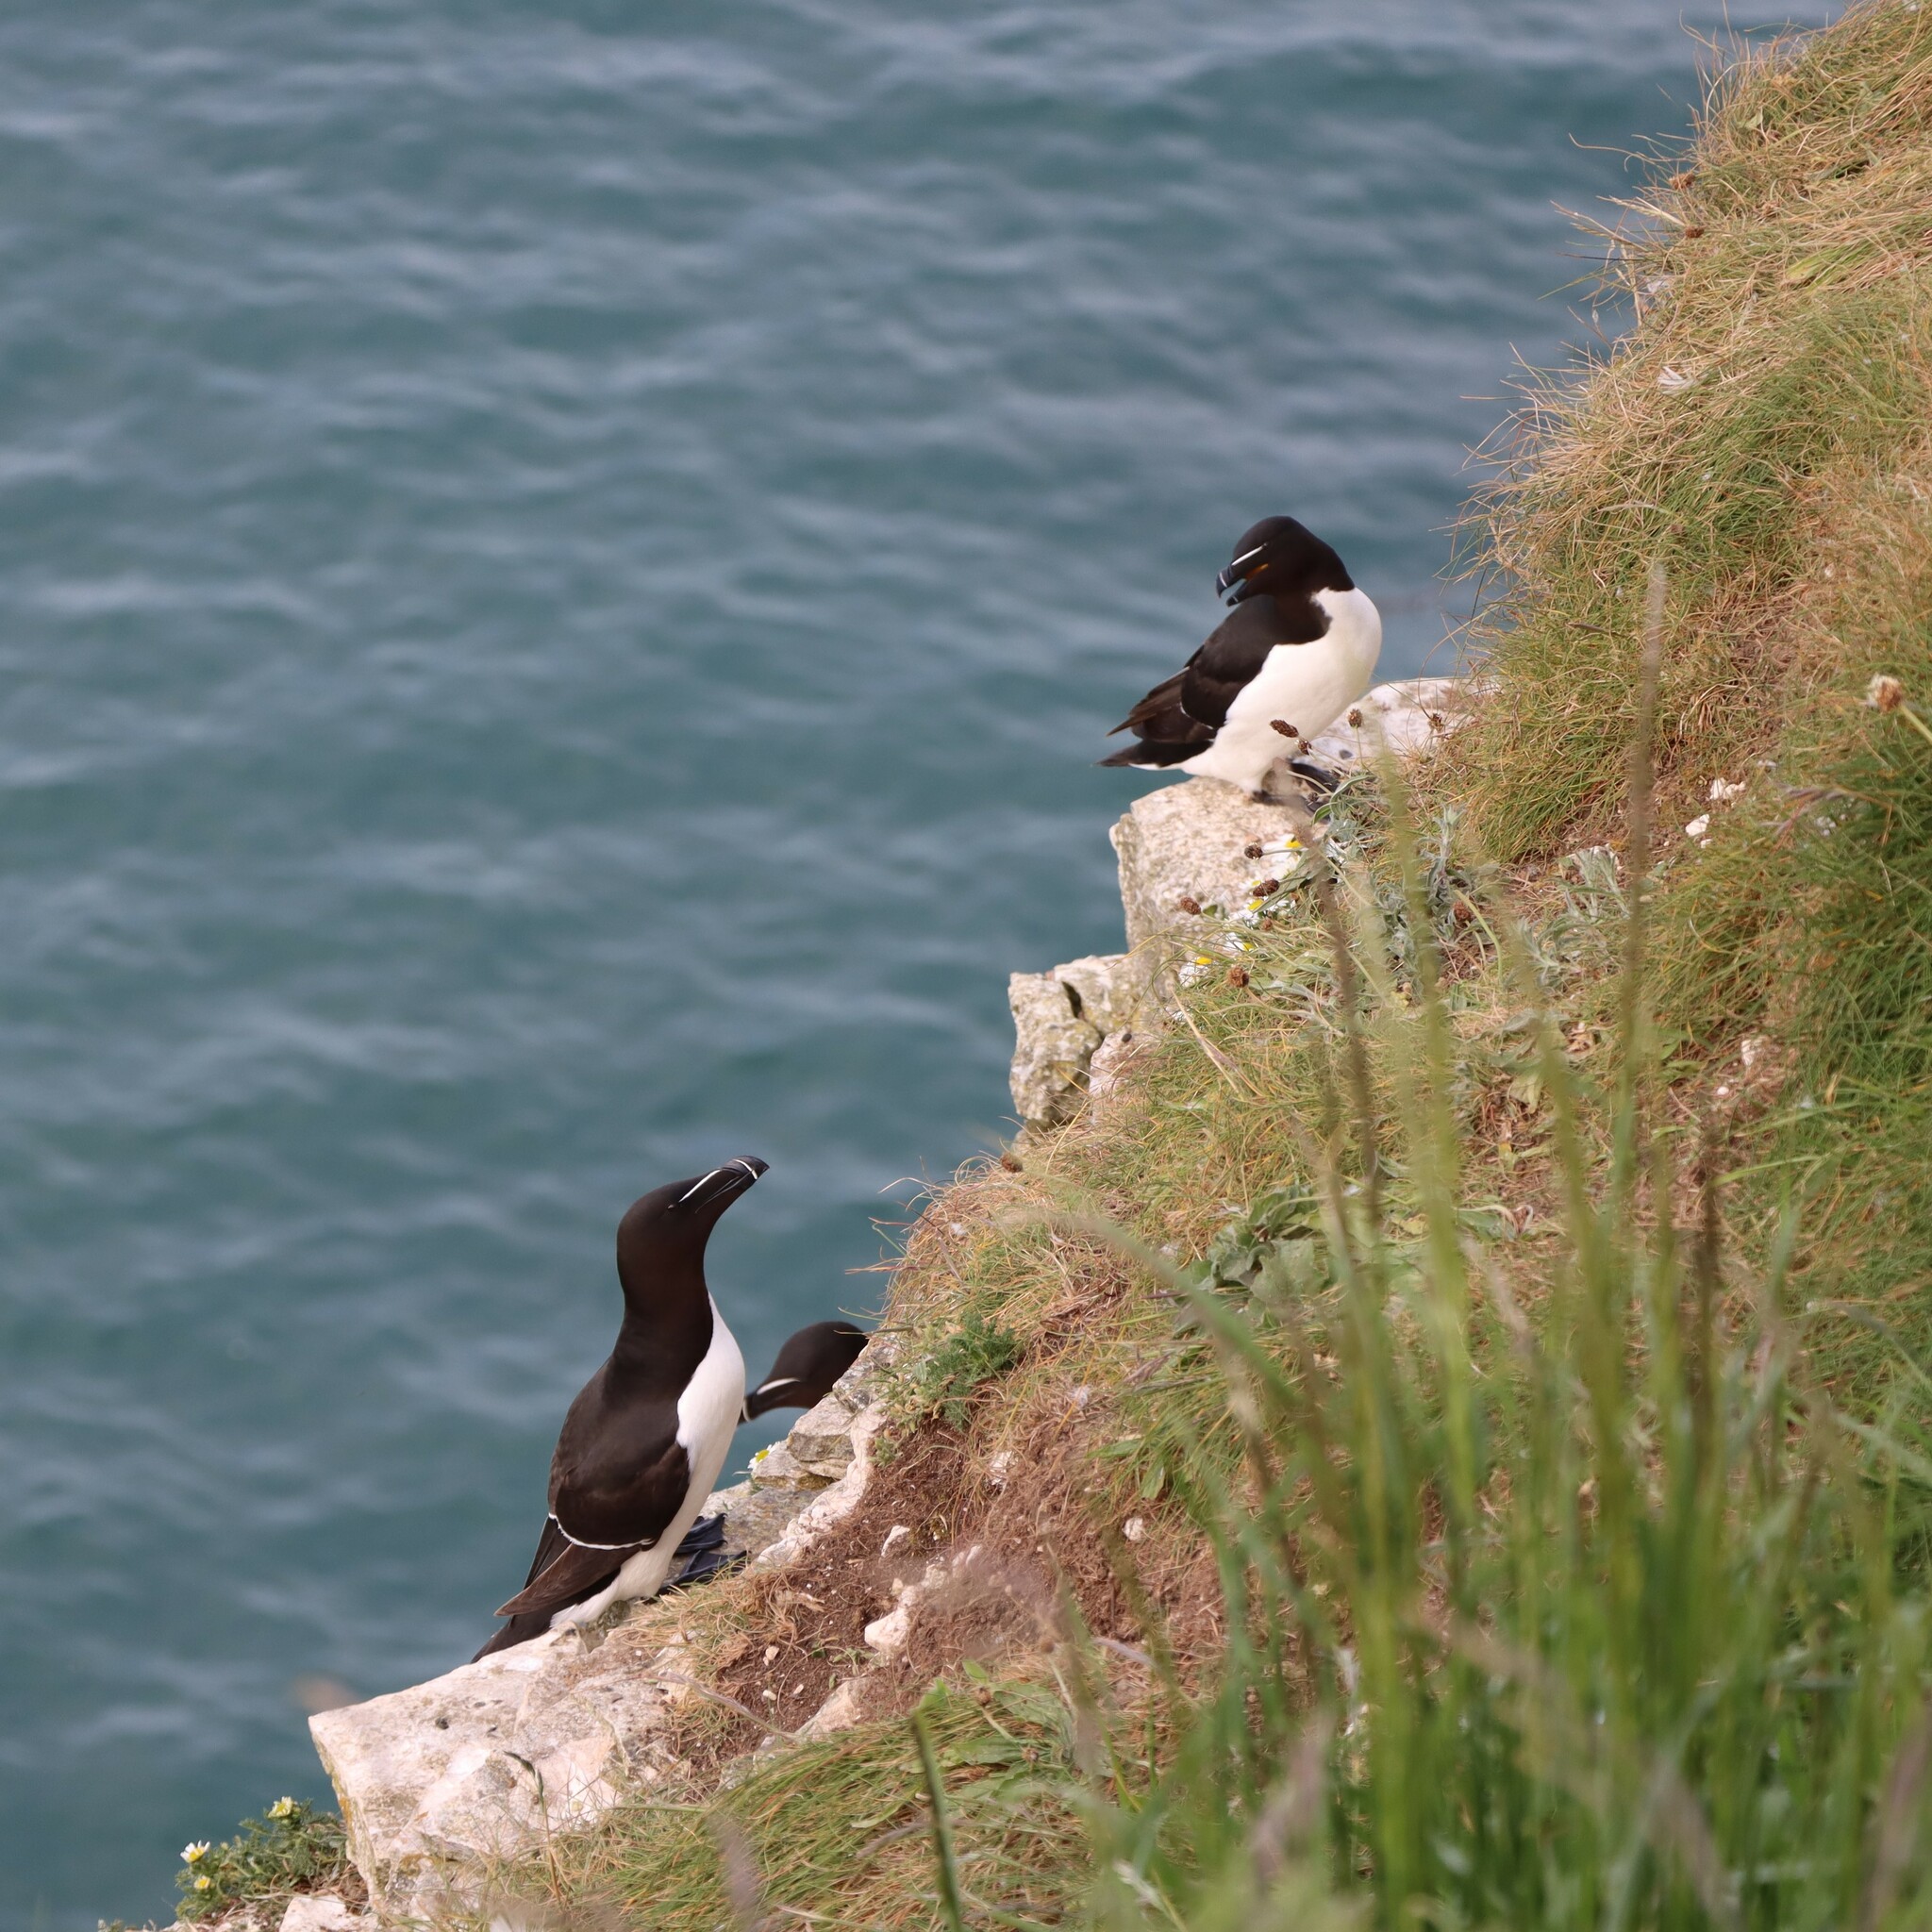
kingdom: Animalia
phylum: Chordata
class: Aves
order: Charadriiformes
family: Alcidae
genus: Alca
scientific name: Alca torda
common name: Razorbill
